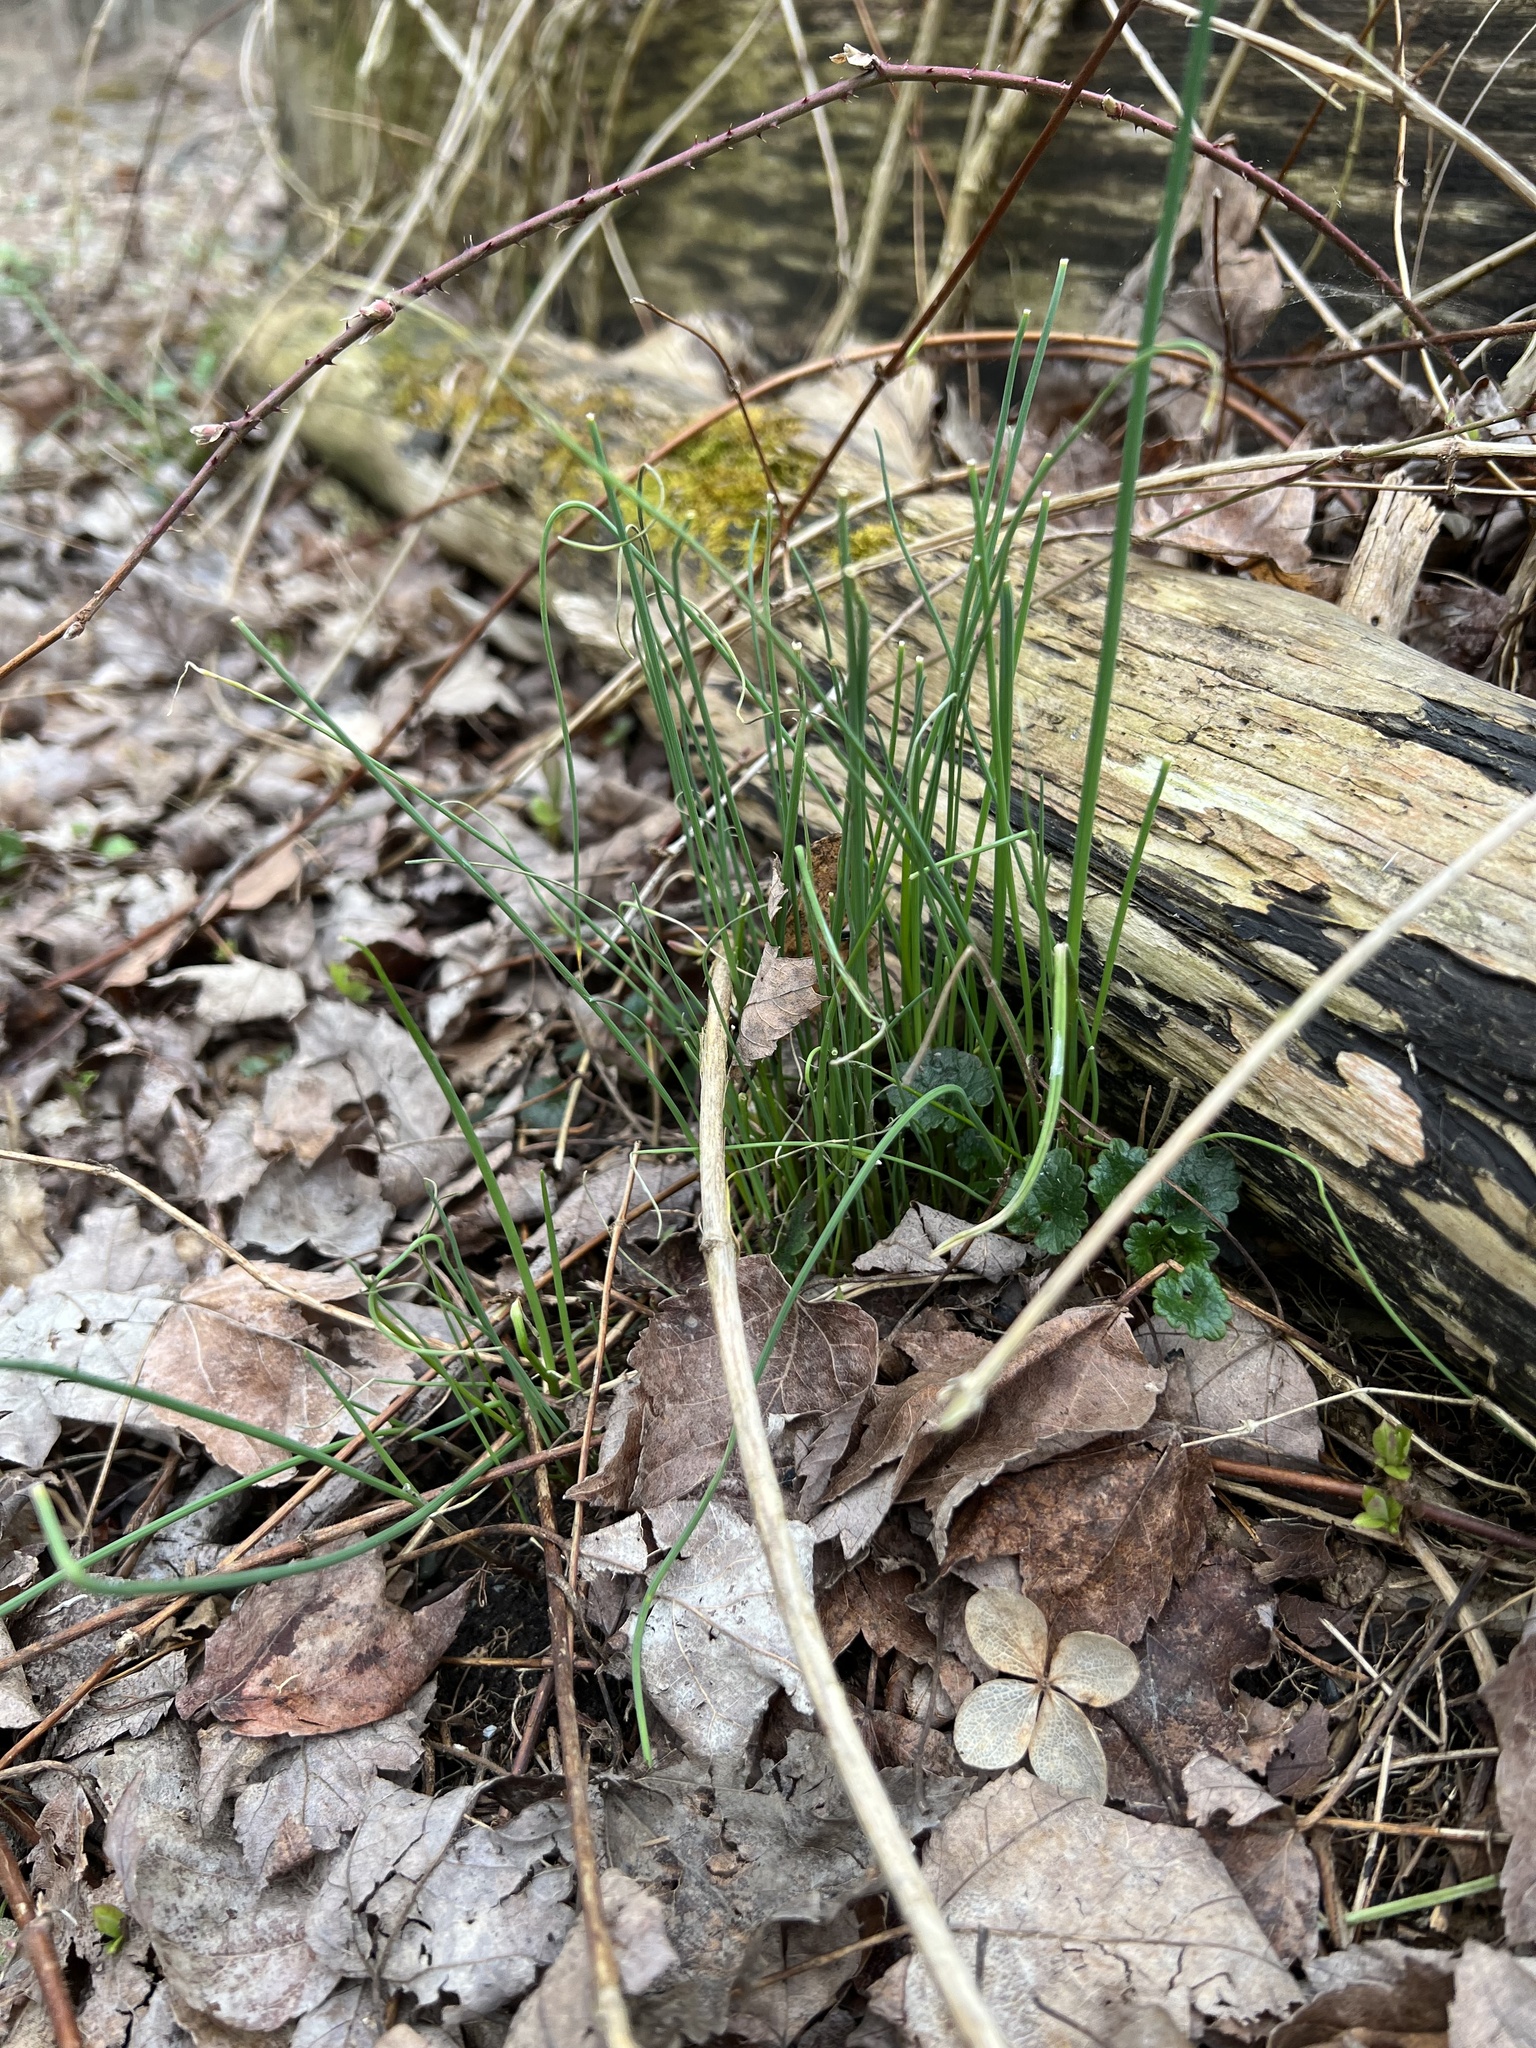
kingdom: Plantae
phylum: Tracheophyta
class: Liliopsida
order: Asparagales
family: Amaryllidaceae
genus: Allium
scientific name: Allium vineale
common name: Crow garlic
